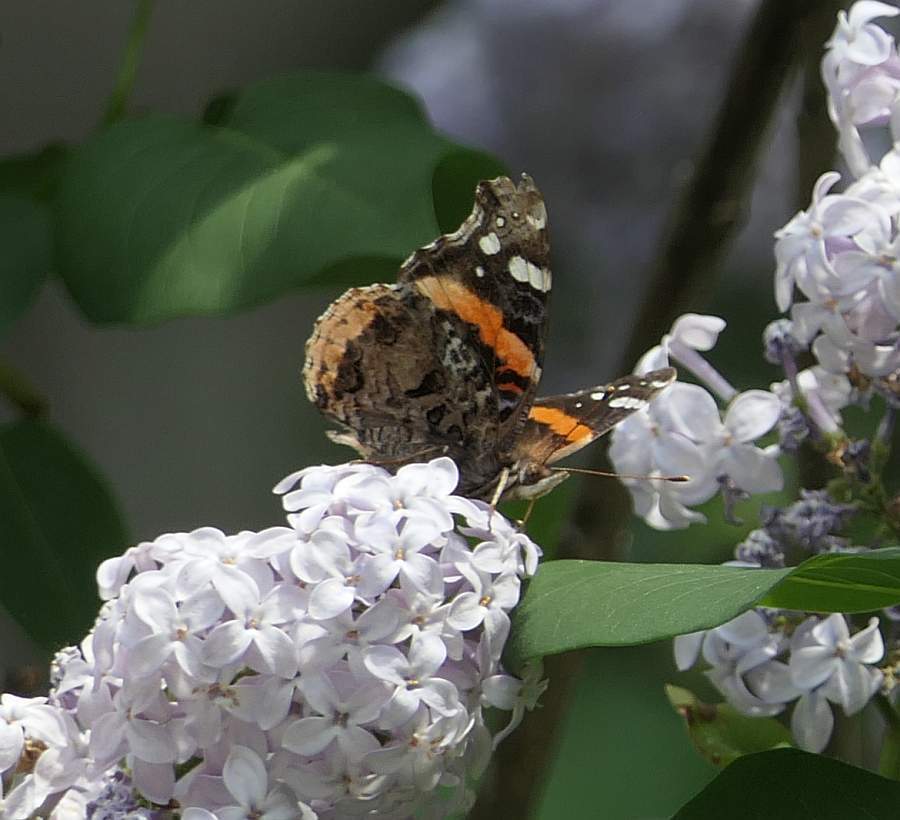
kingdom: Animalia
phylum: Arthropoda
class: Insecta
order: Lepidoptera
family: Nymphalidae
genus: Vanessa
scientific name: Vanessa atalanta
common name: Red admiral
